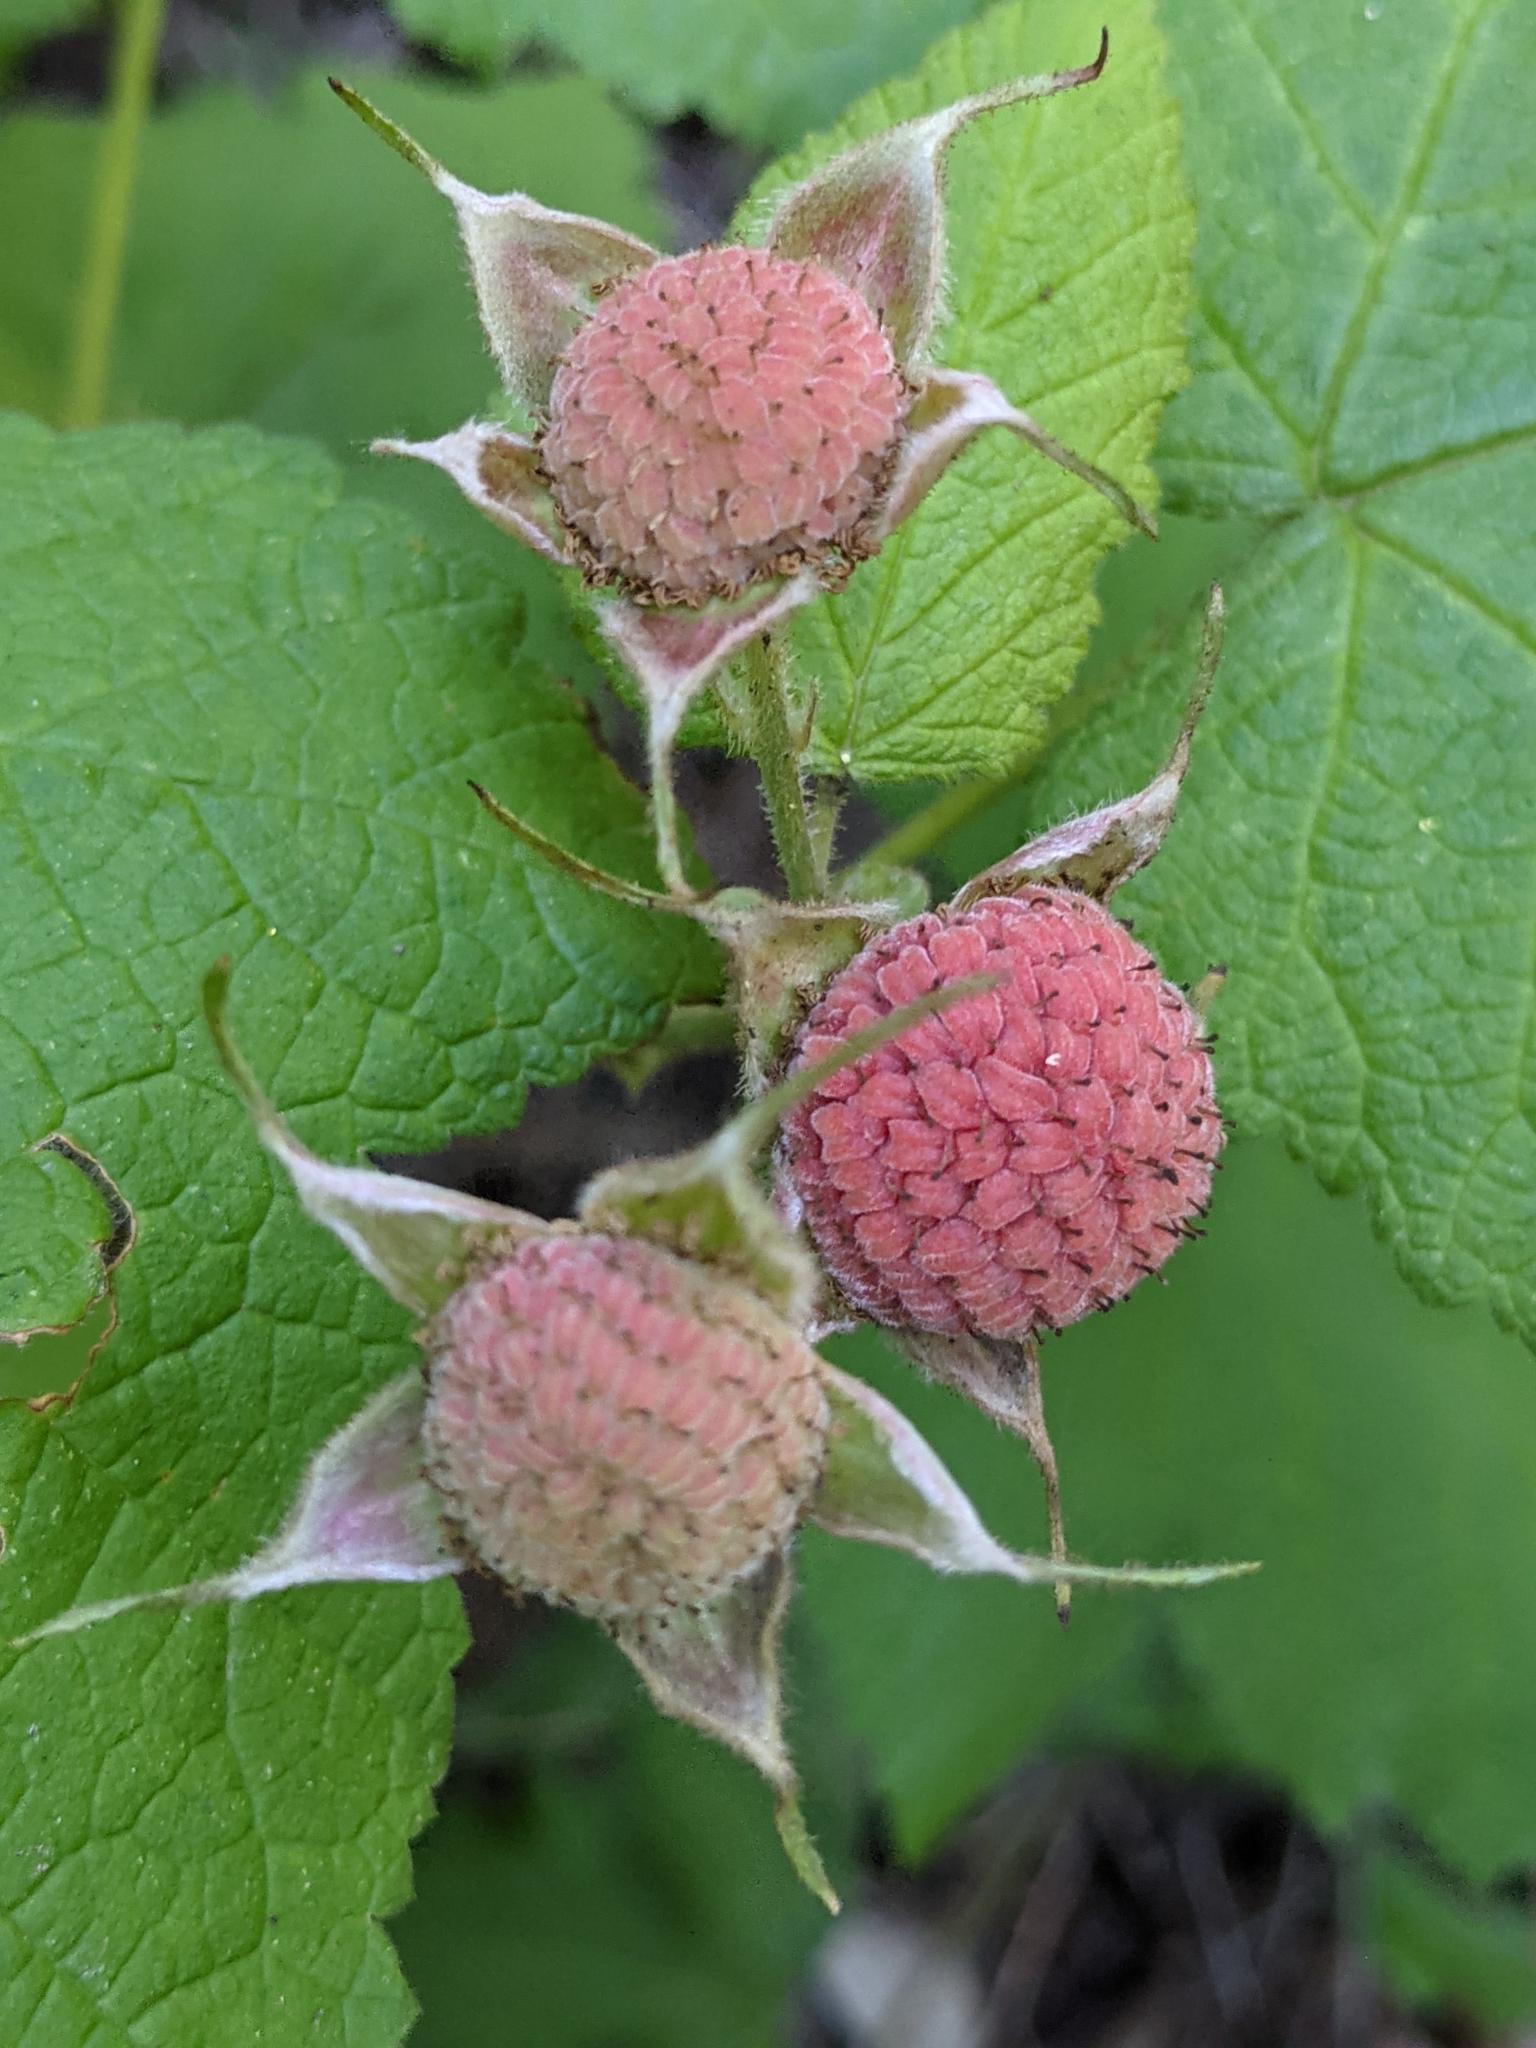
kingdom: Plantae
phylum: Tracheophyta
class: Magnoliopsida
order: Rosales
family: Rosaceae
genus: Rubus
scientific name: Rubus parviflorus
